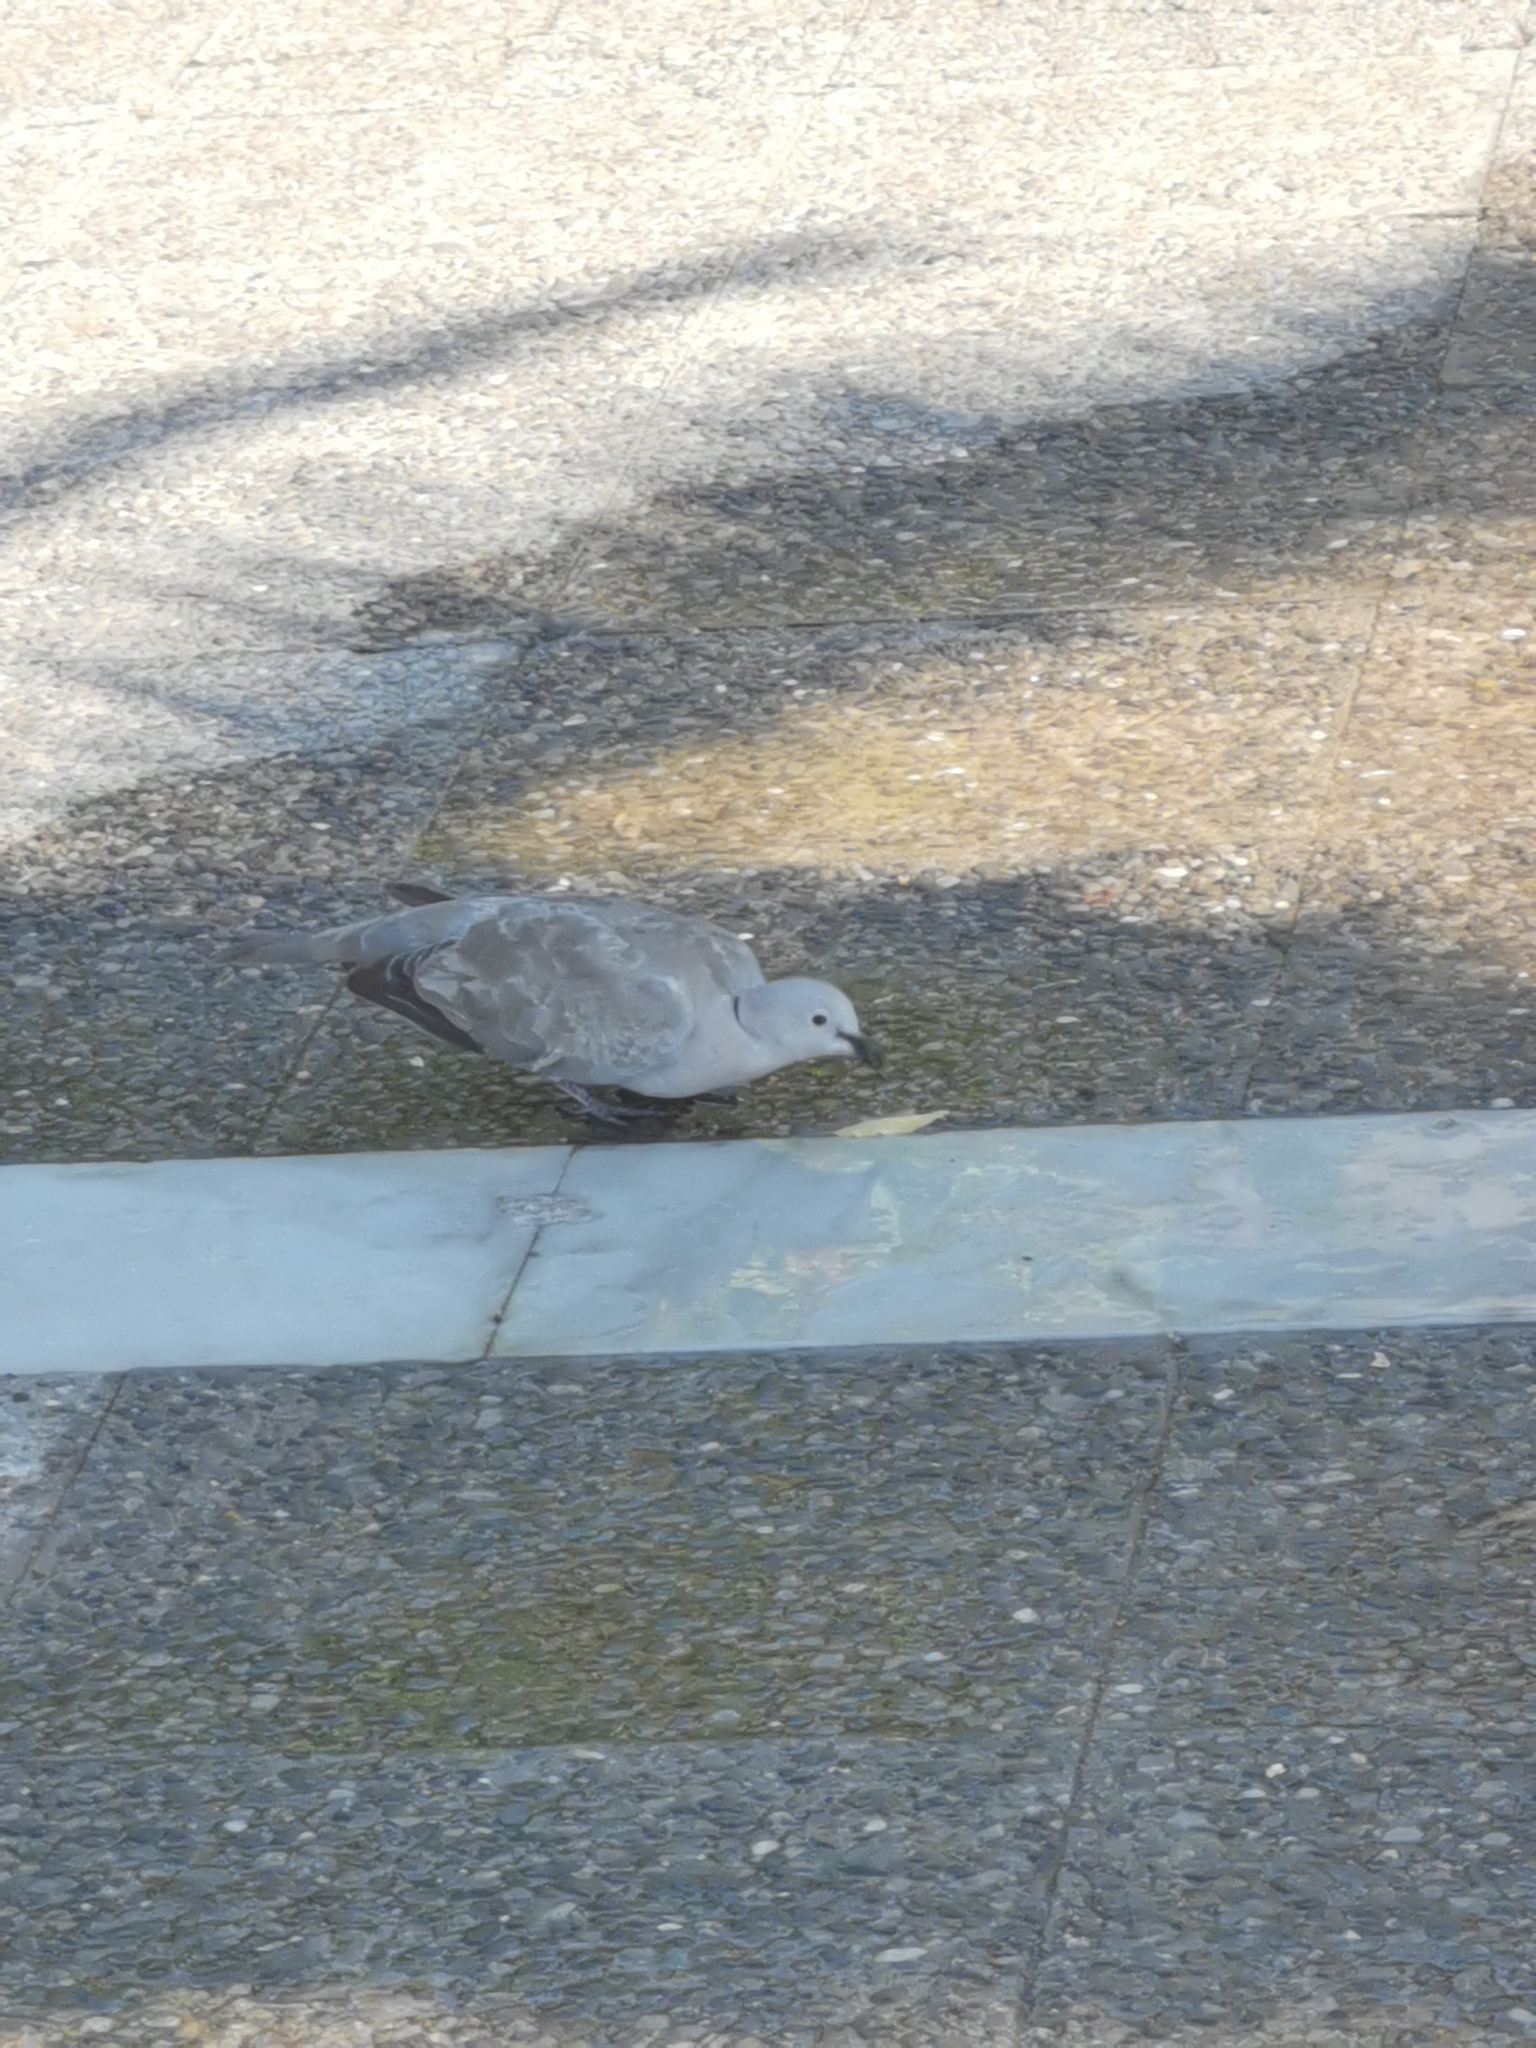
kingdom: Animalia
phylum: Chordata
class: Aves
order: Columbiformes
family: Columbidae
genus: Streptopelia
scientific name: Streptopelia decaocto
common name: Eurasian collared dove
